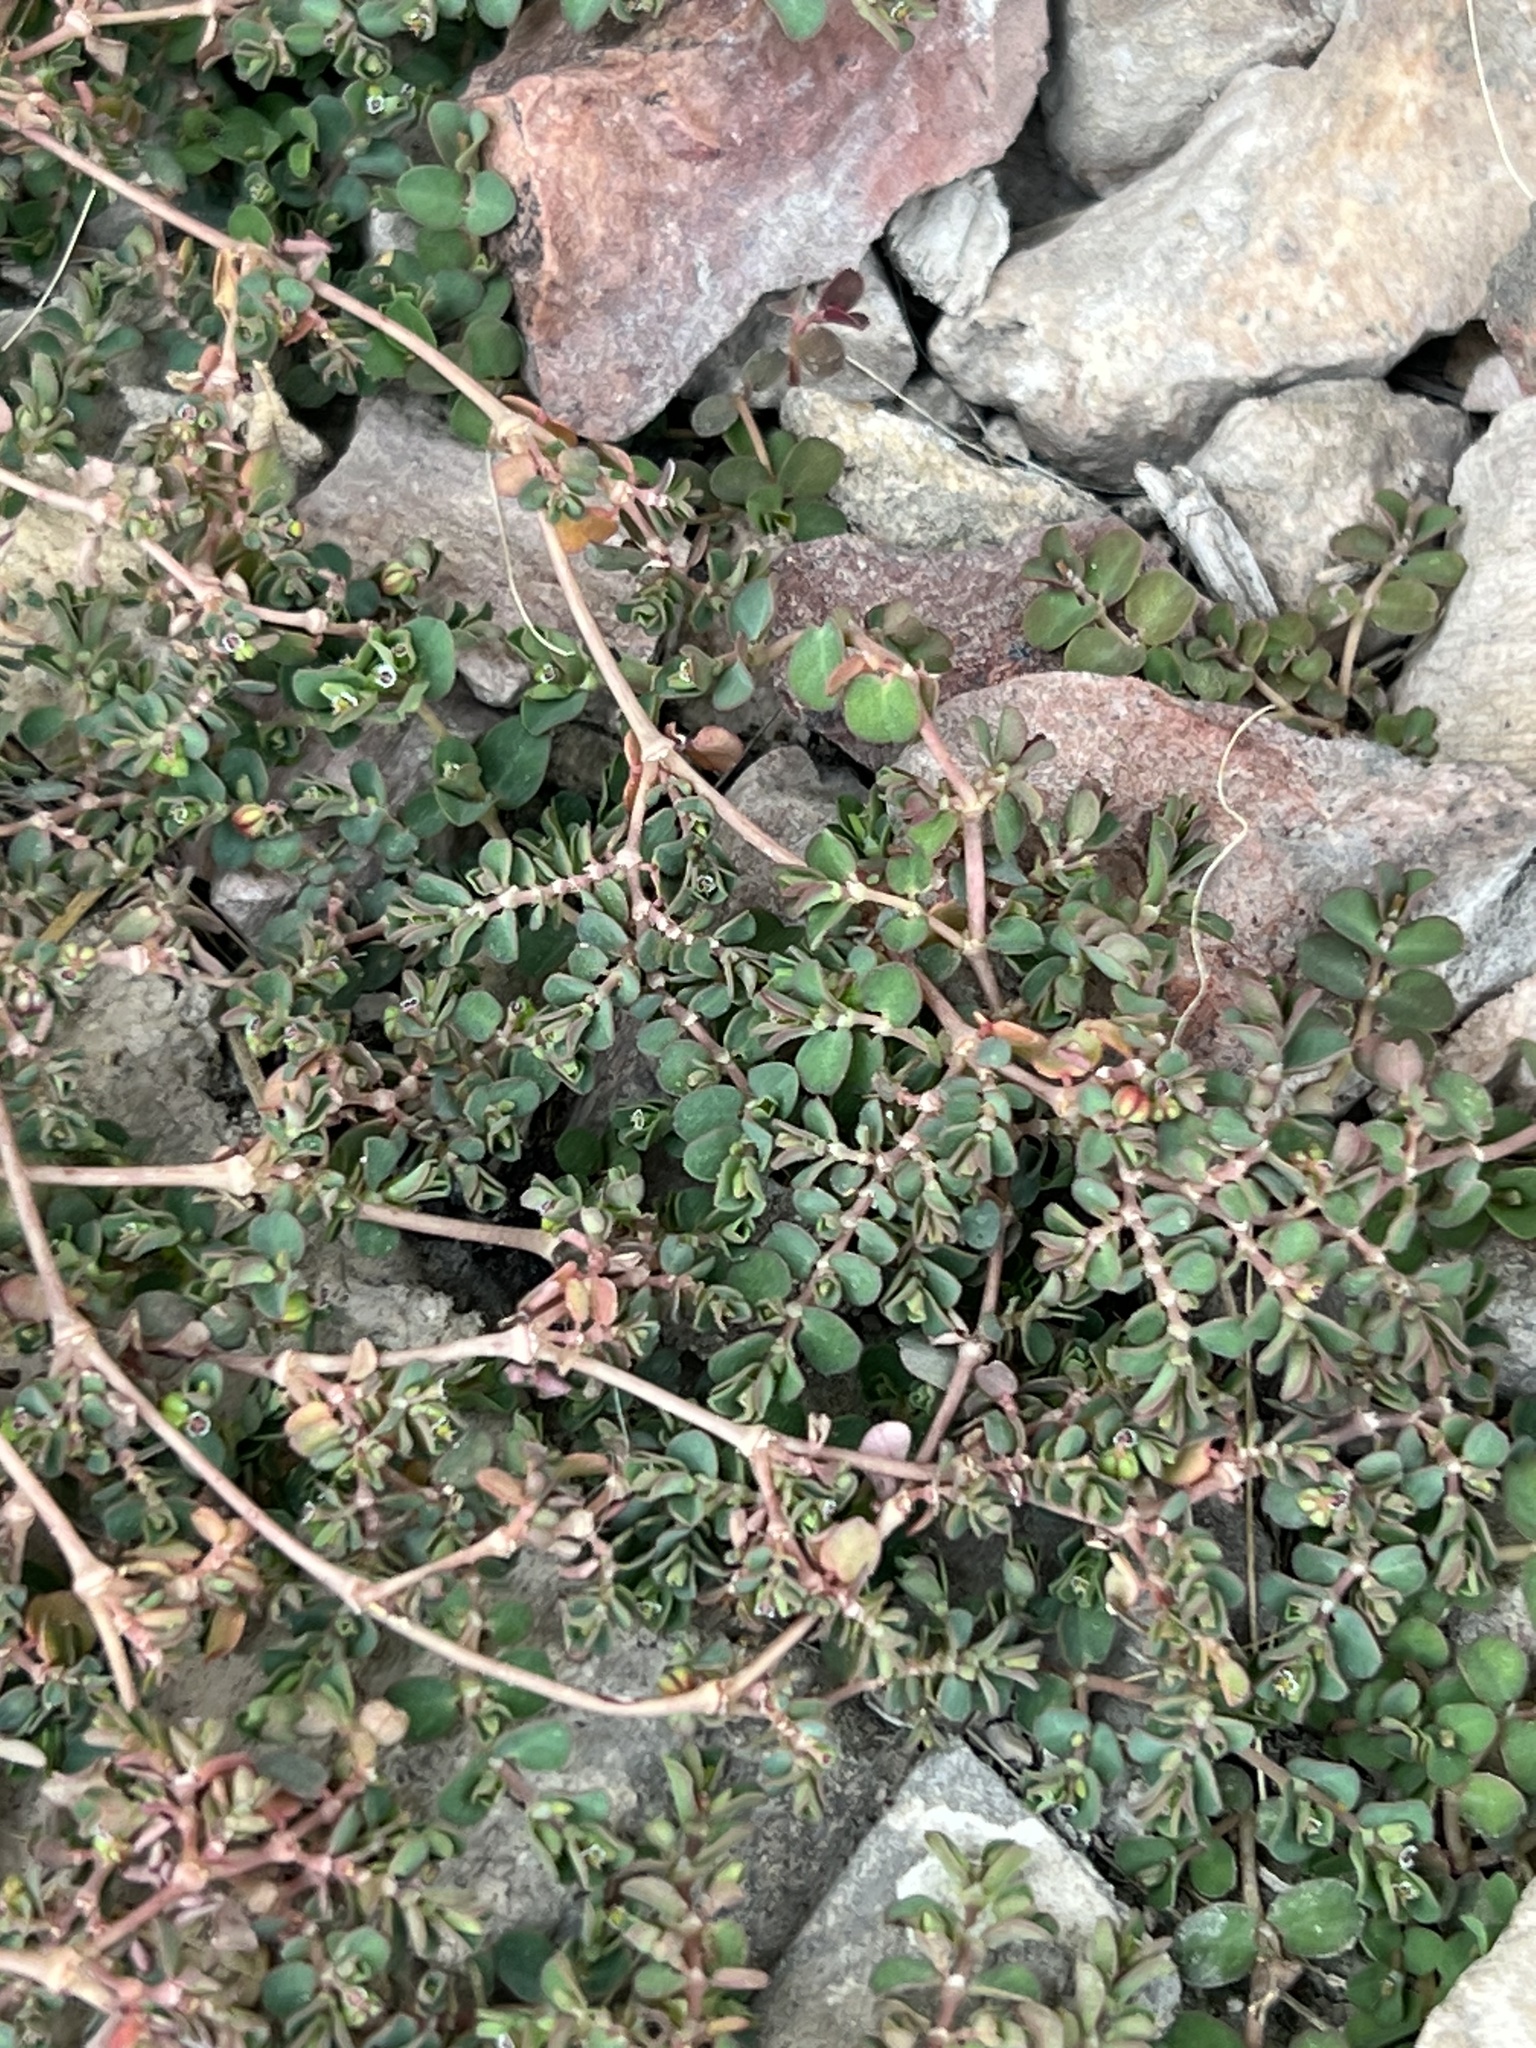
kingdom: Plantae
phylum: Tracheophyta
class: Magnoliopsida
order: Malpighiales
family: Euphorbiaceae
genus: Euphorbia
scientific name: Euphorbia serpens
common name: Matted sandmat
